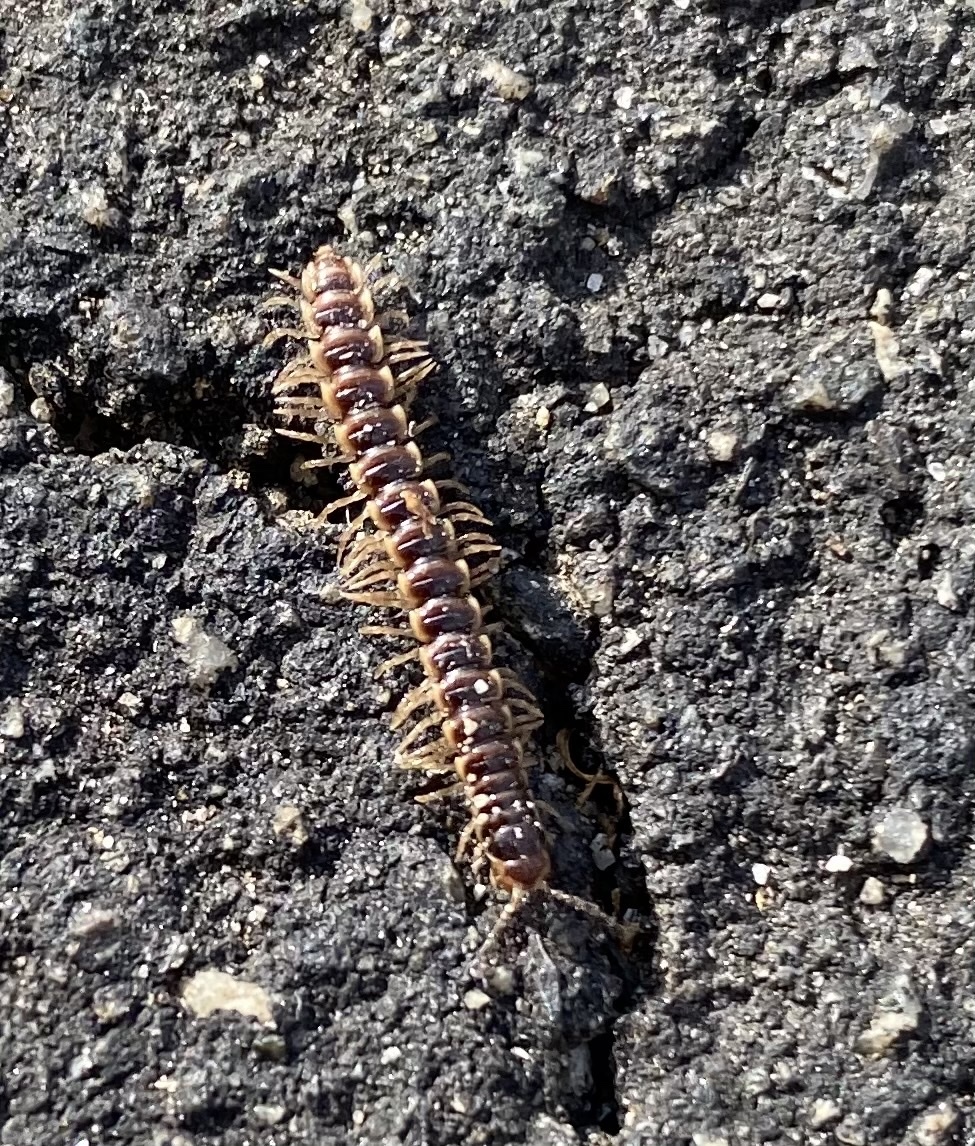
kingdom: Animalia
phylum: Arthropoda
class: Diplopoda
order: Polydesmida
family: Paradoxosomatidae
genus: Oxidus
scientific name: Oxidus gracilis
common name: Greenhouse millipede
